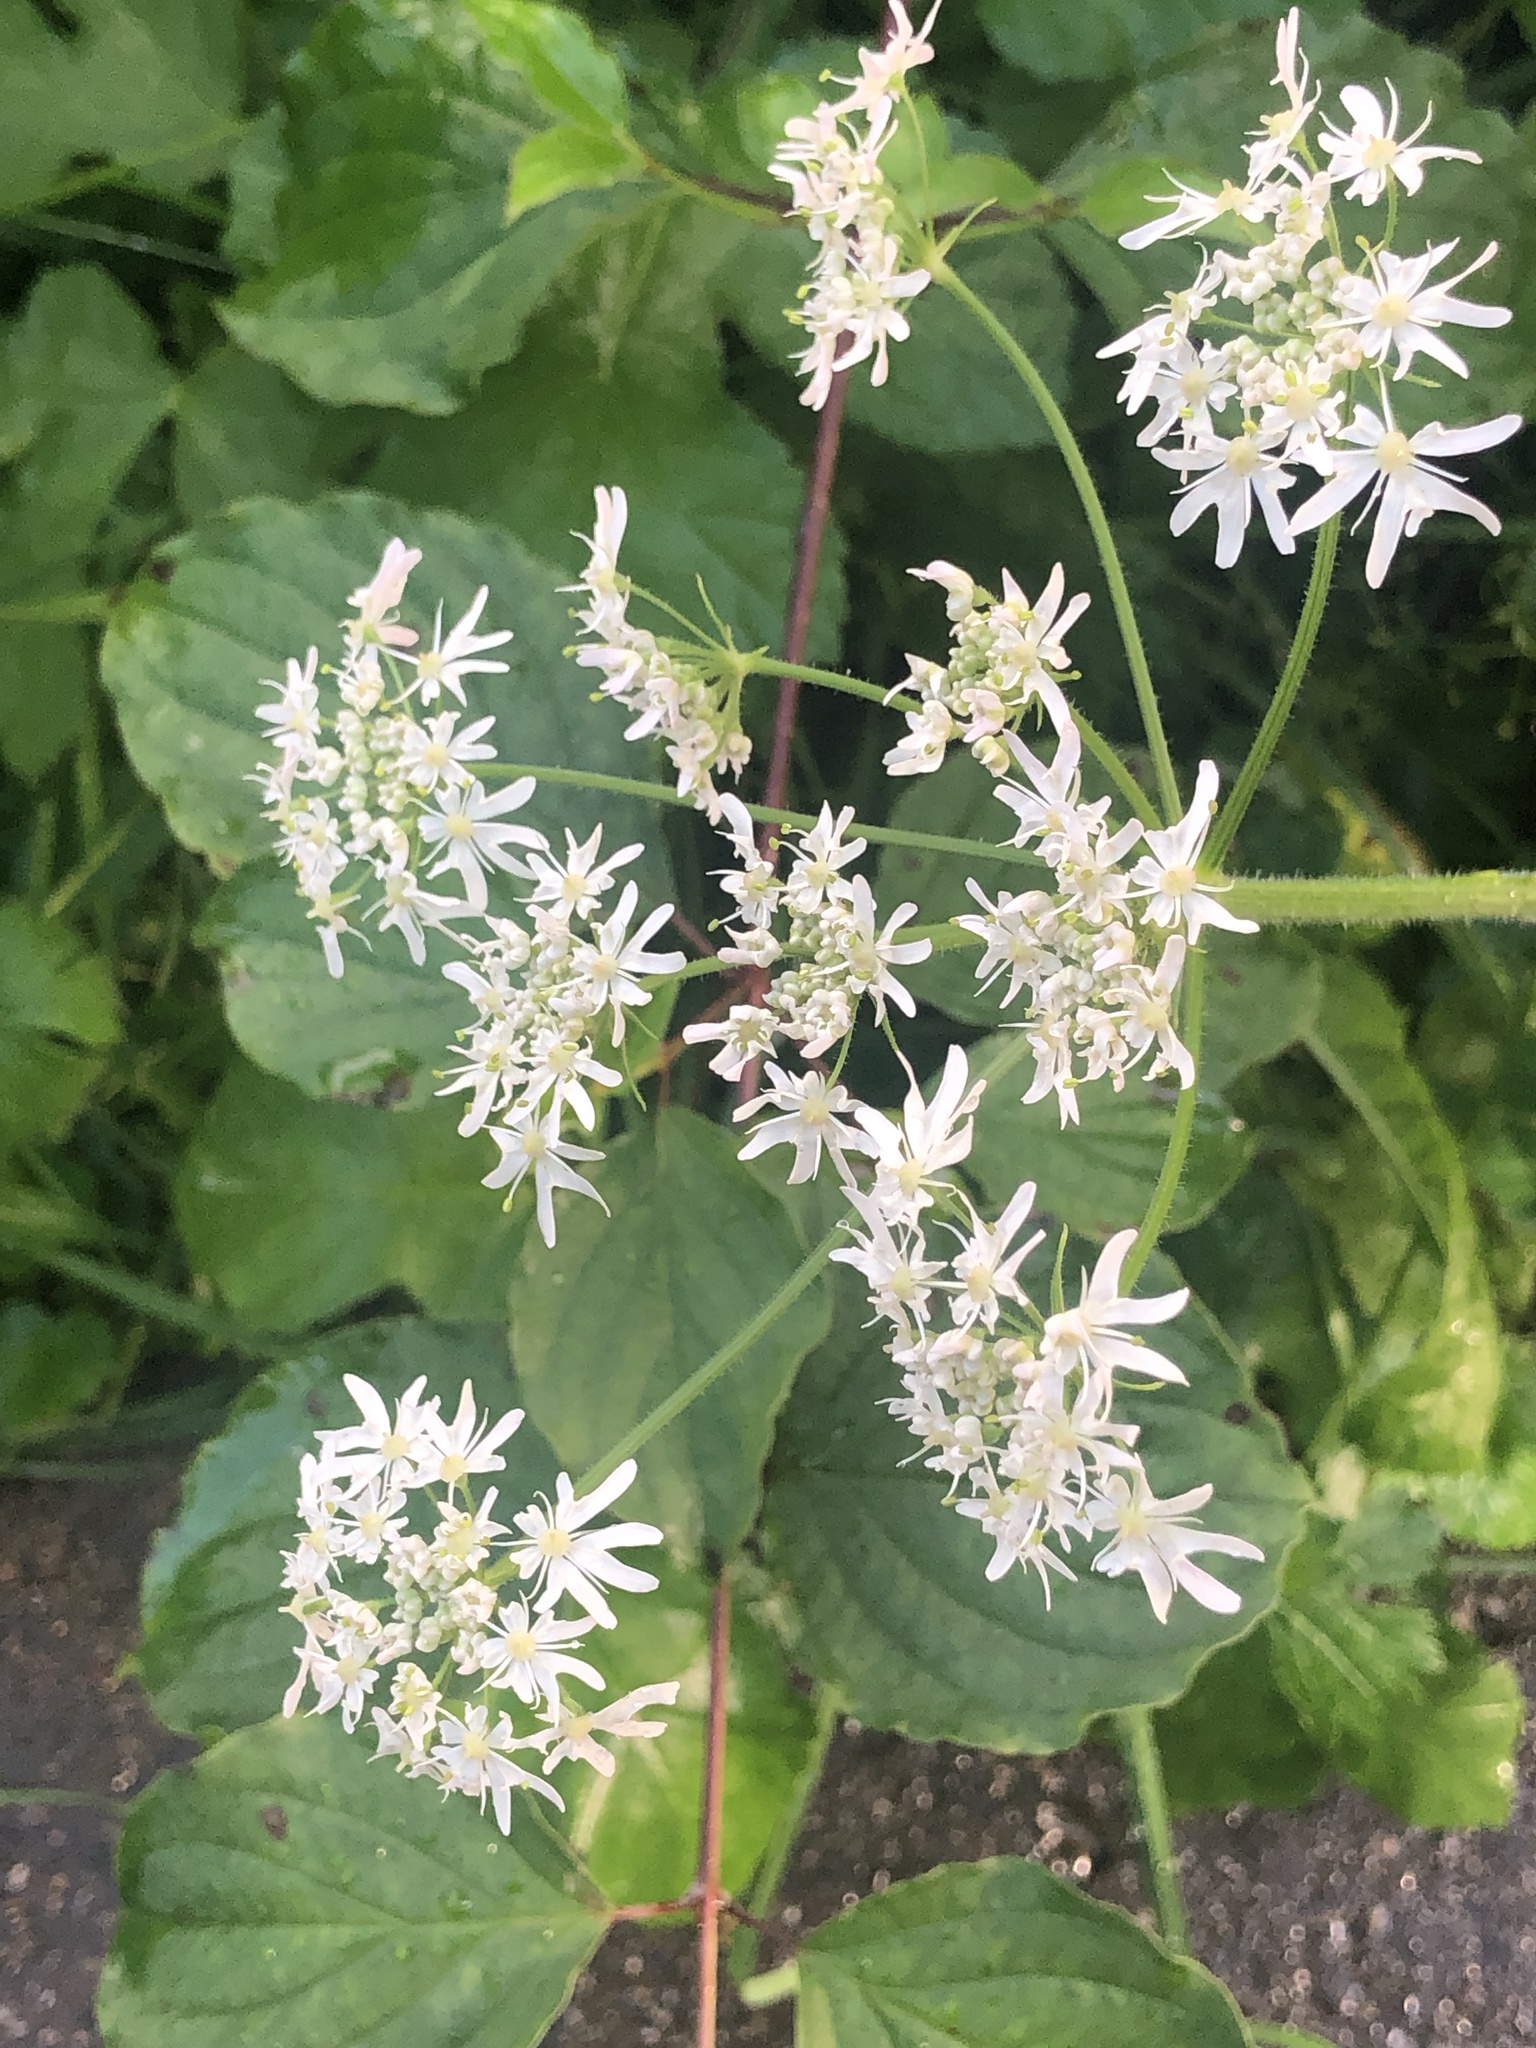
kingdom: Plantae
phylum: Tracheophyta
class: Magnoliopsida
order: Apiales
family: Apiaceae
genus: Heracleum
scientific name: Heracleum sphondylium
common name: Hogweed
